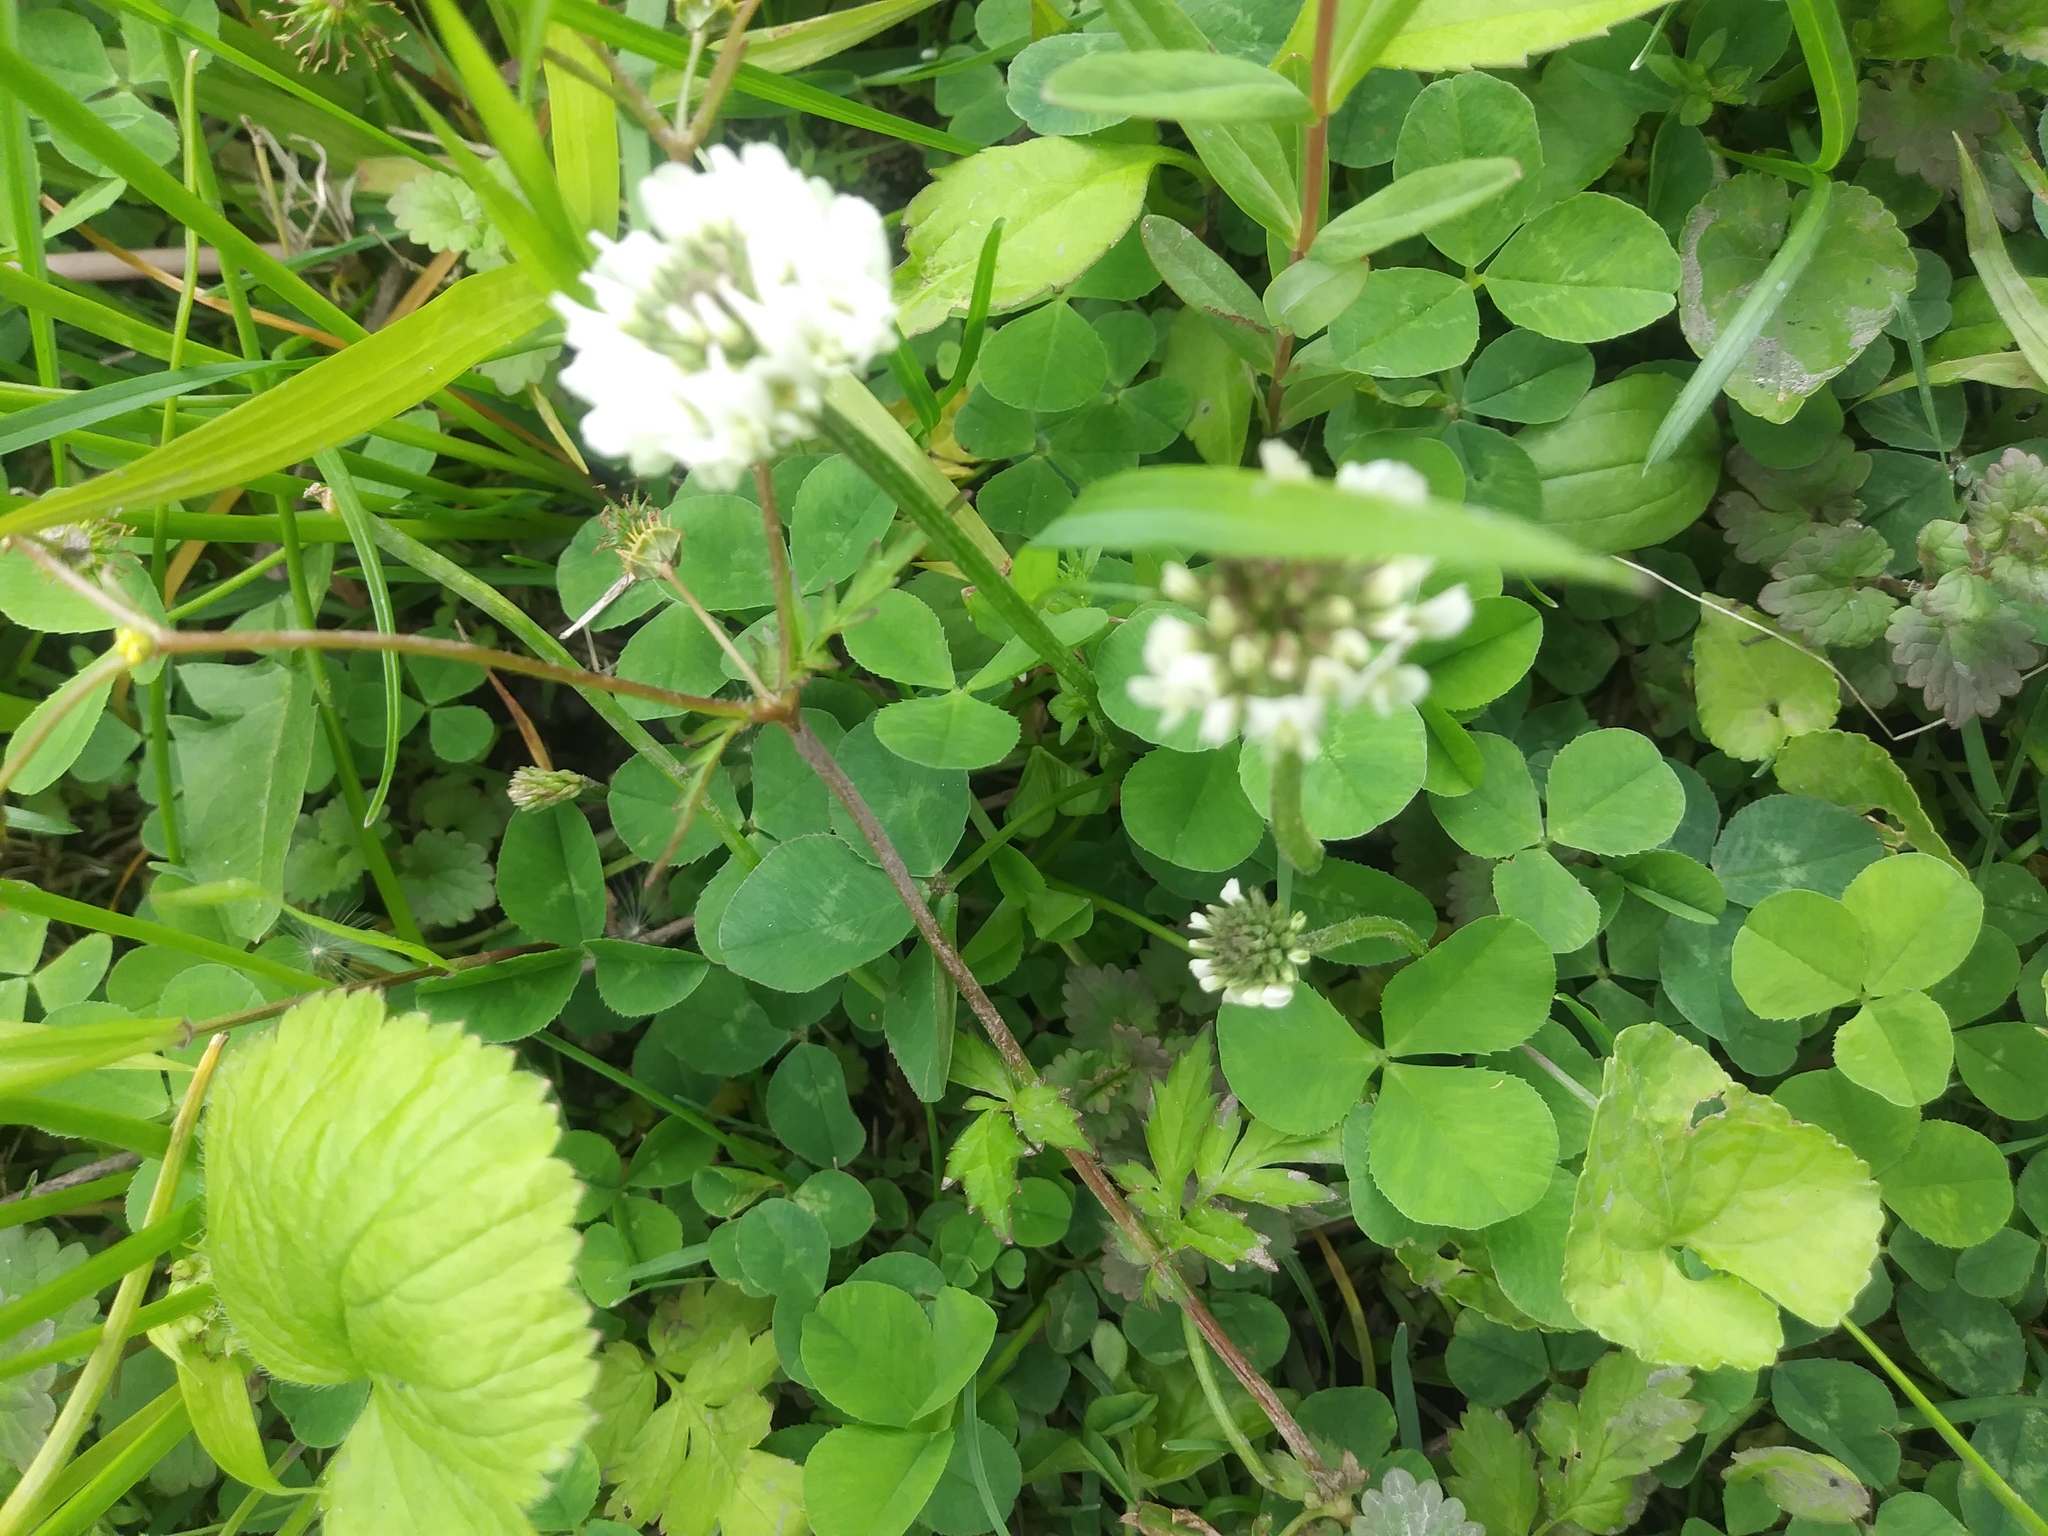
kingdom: Plantae
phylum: Tracheophyta
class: Magnoliopsida
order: Fabales
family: Fabaceae
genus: Trifolium
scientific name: Trifolium repens
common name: White clover
